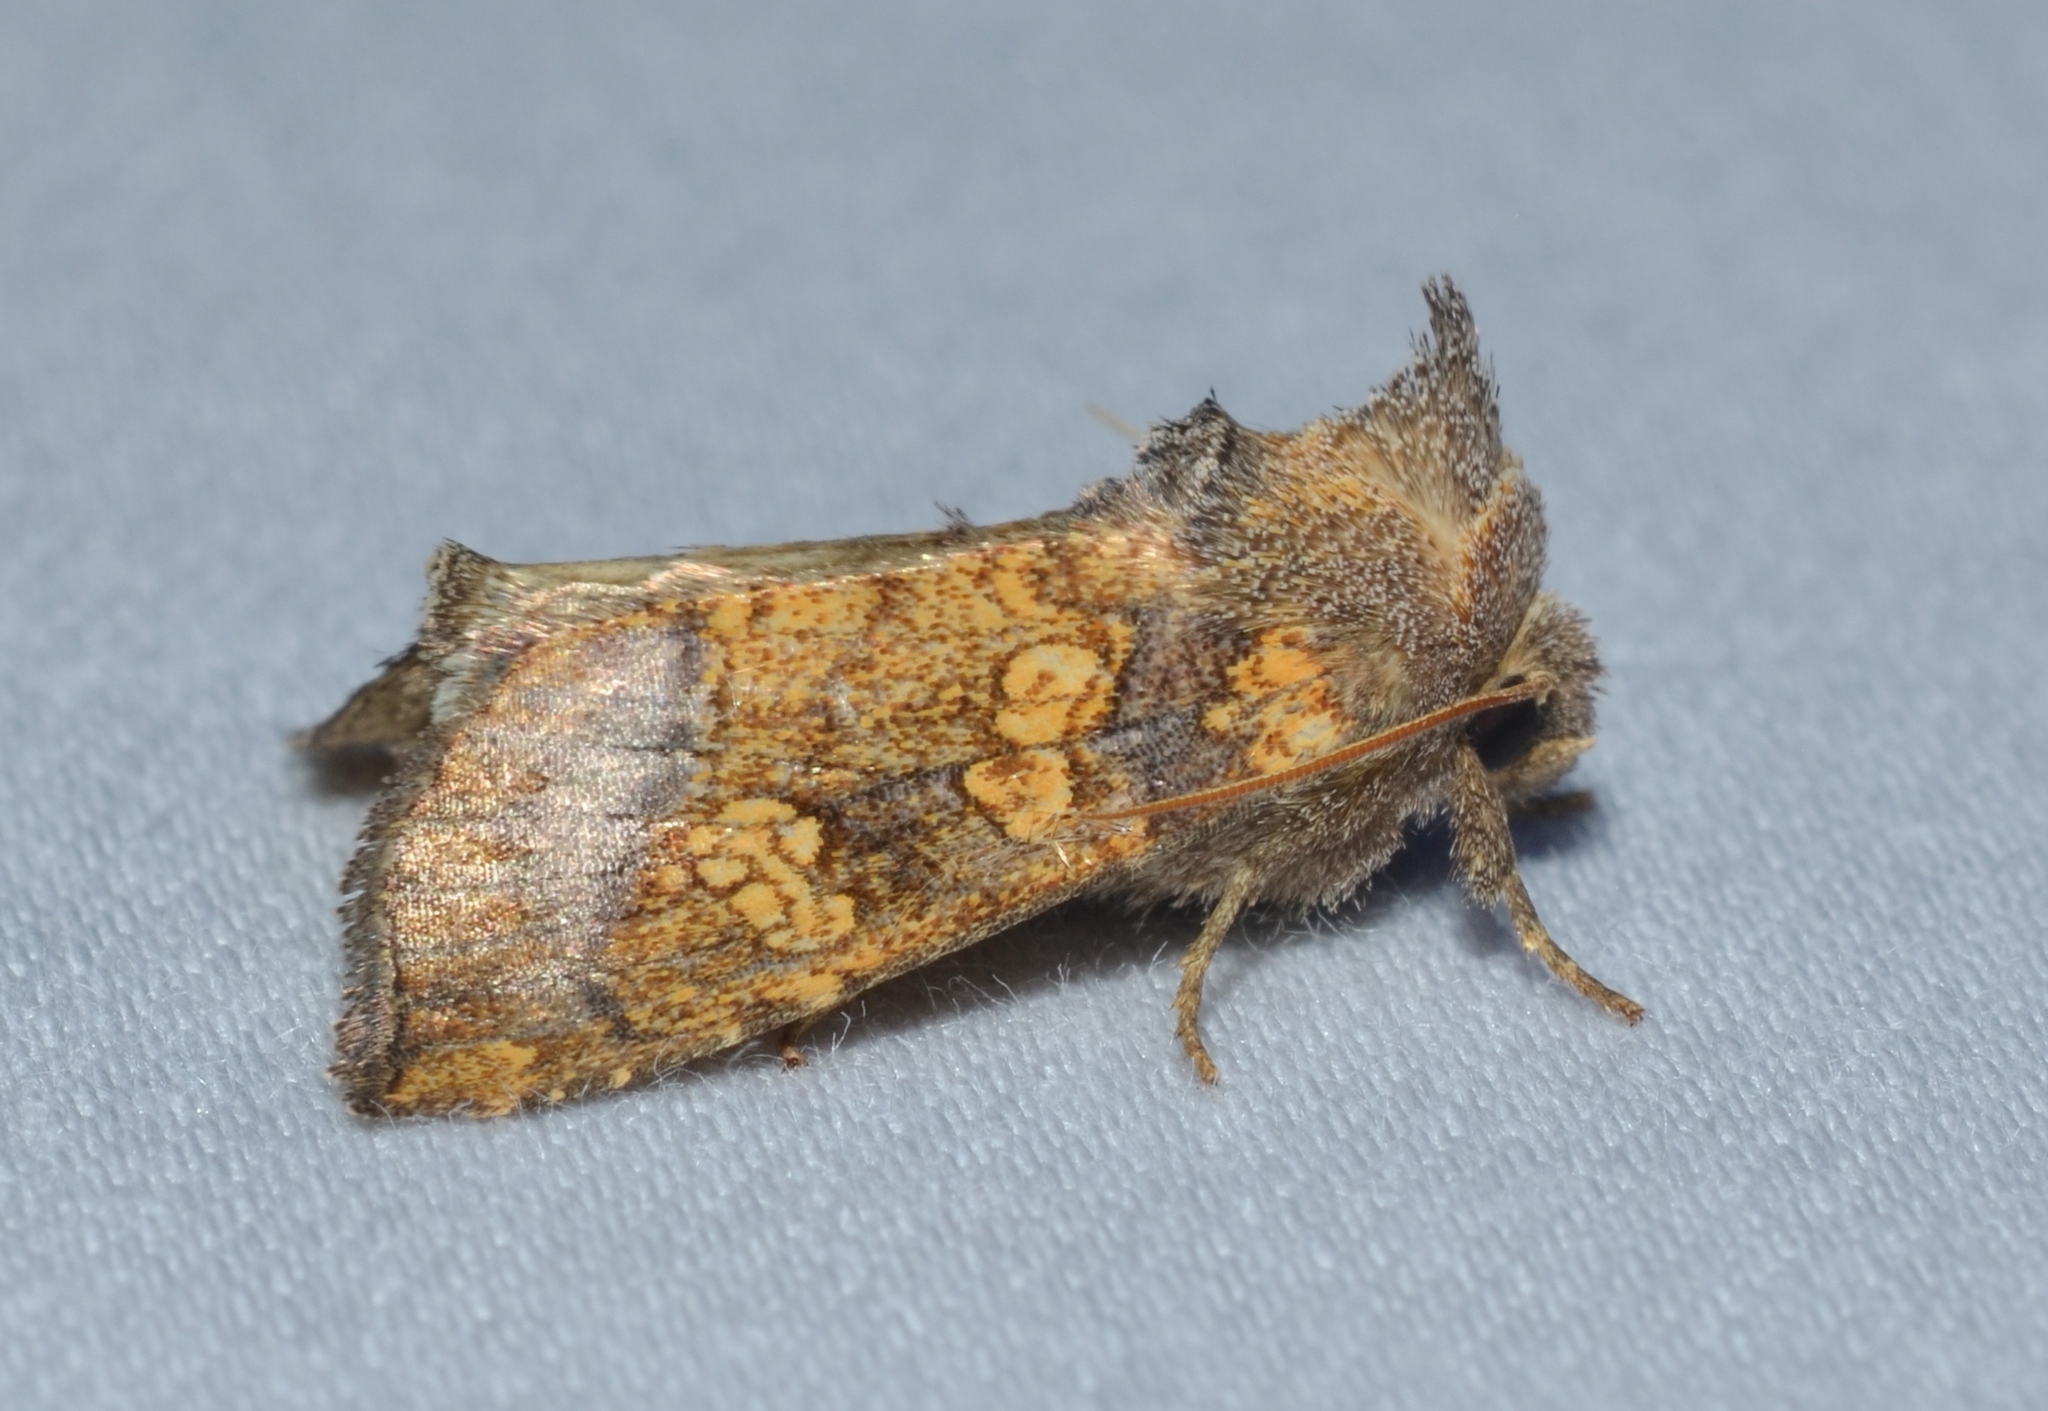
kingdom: Animalia
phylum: Arthropoda
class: Insecta
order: Lepidoptera
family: Noctuidae
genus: Papaipema
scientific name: Papaipema cataphracta
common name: Burdock borer
